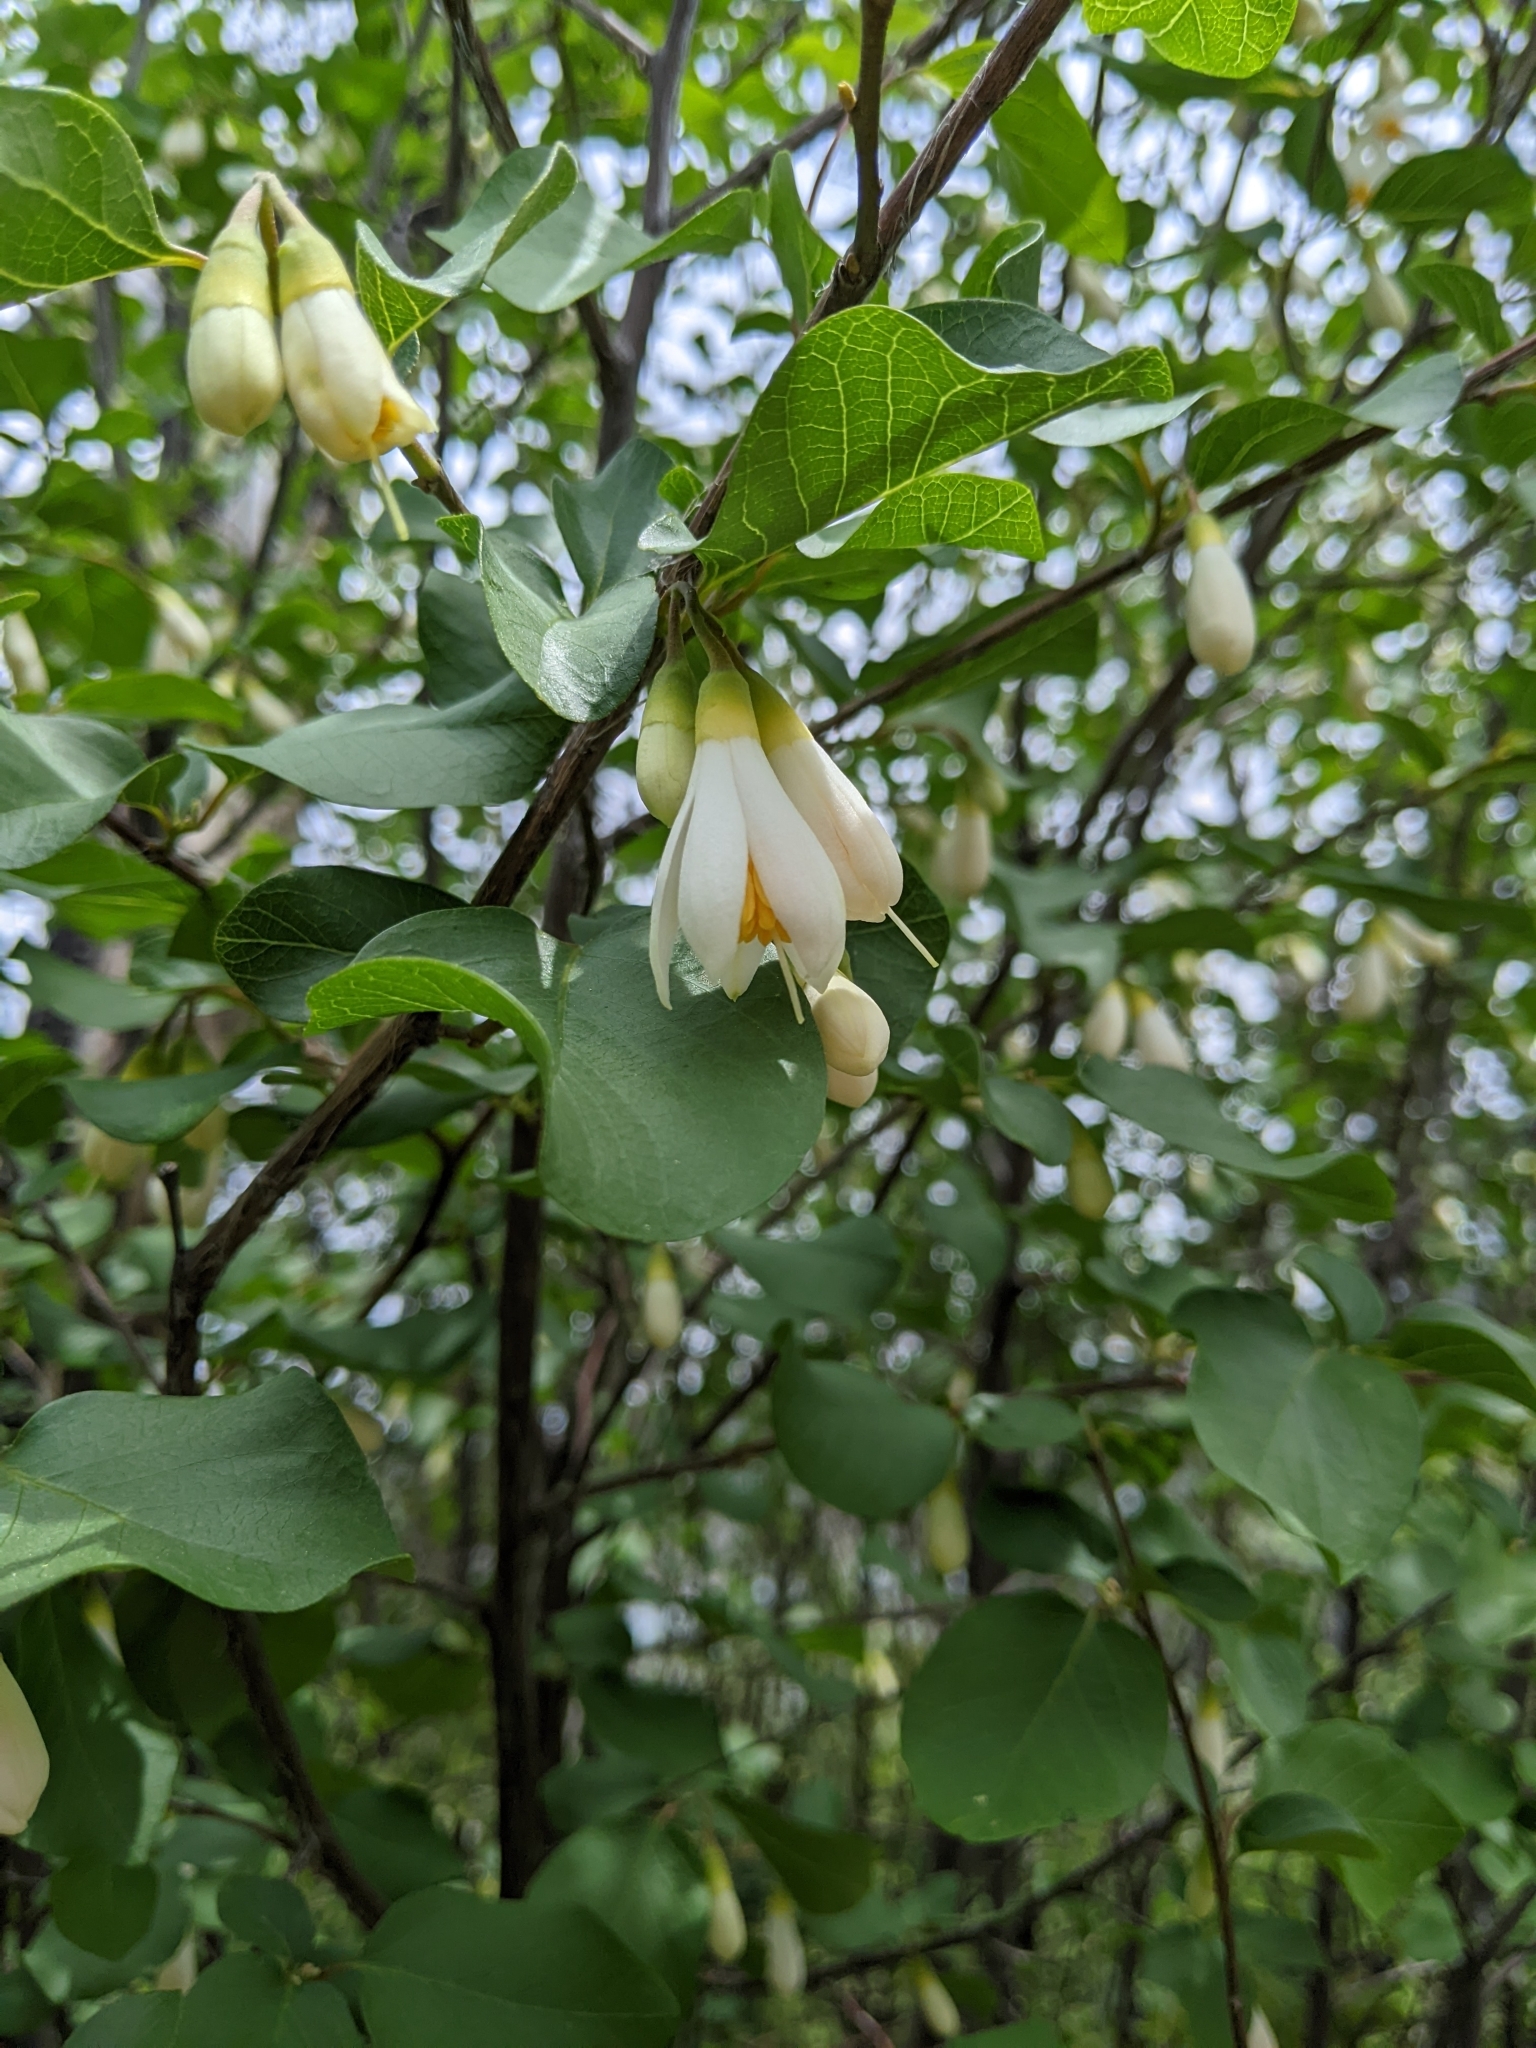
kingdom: Plantae
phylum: Tracheophyta
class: Magnoliopsida
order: Ericales
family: Styracaceae
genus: Styrax
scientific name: Styrax redivivus
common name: California styrax
